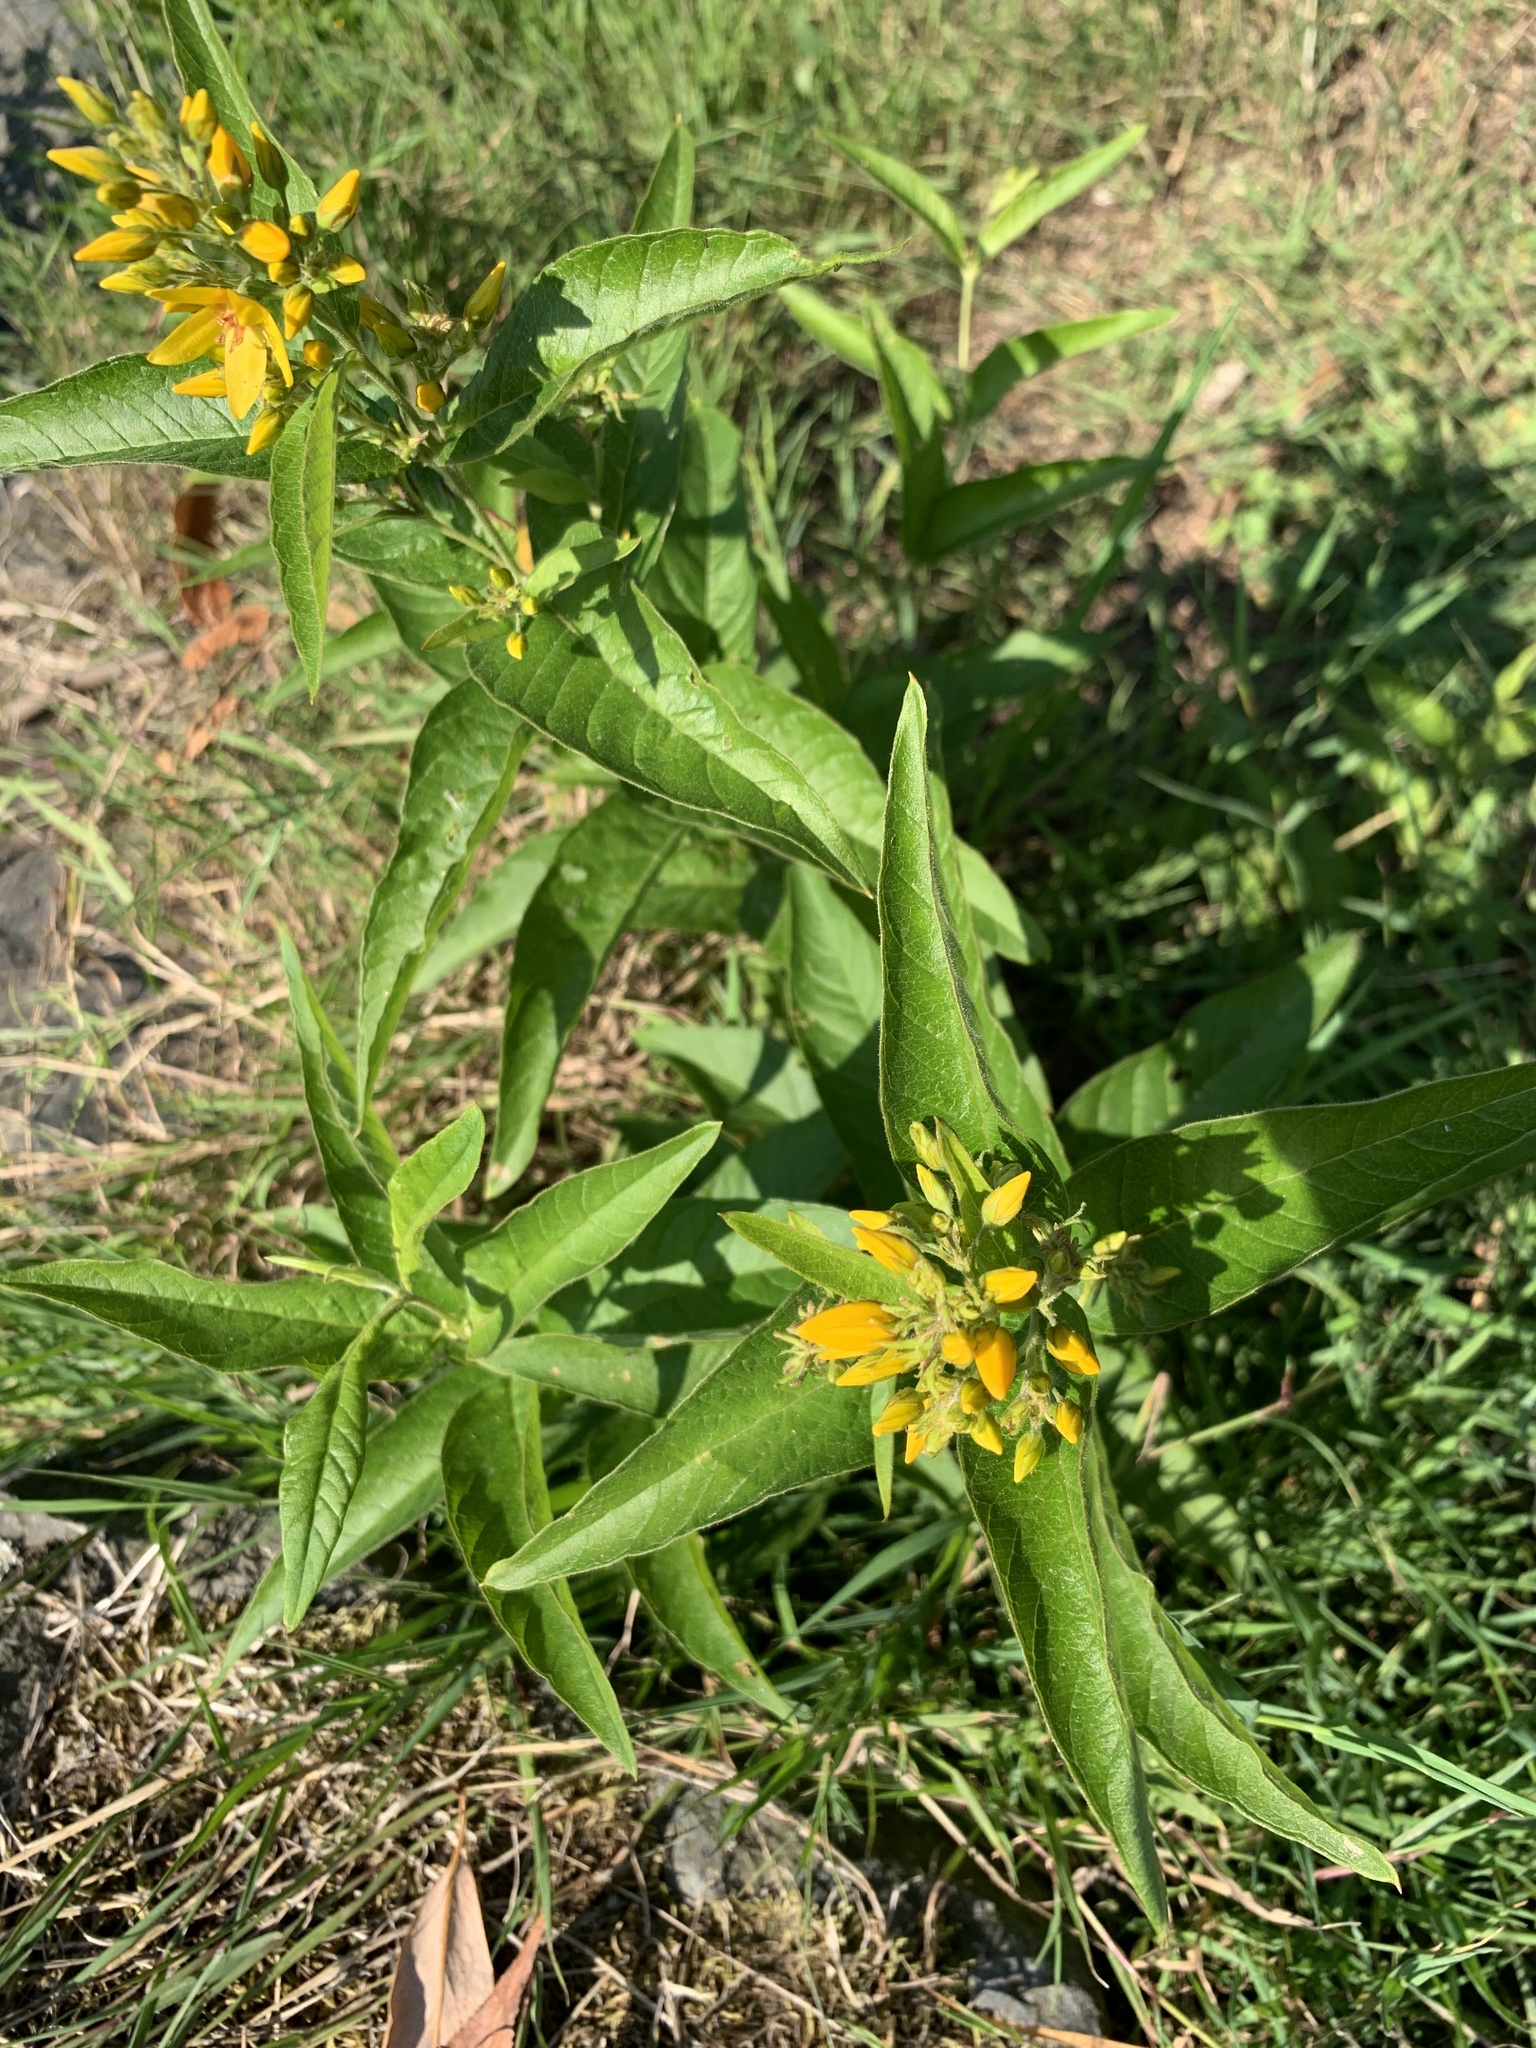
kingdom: Plantae
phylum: Tracheophyta
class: Magnoliopsida
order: Ericales
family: Primulaceae
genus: Lysimachia
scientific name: Lysimachia vulgaris
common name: Yellow loosestrife
